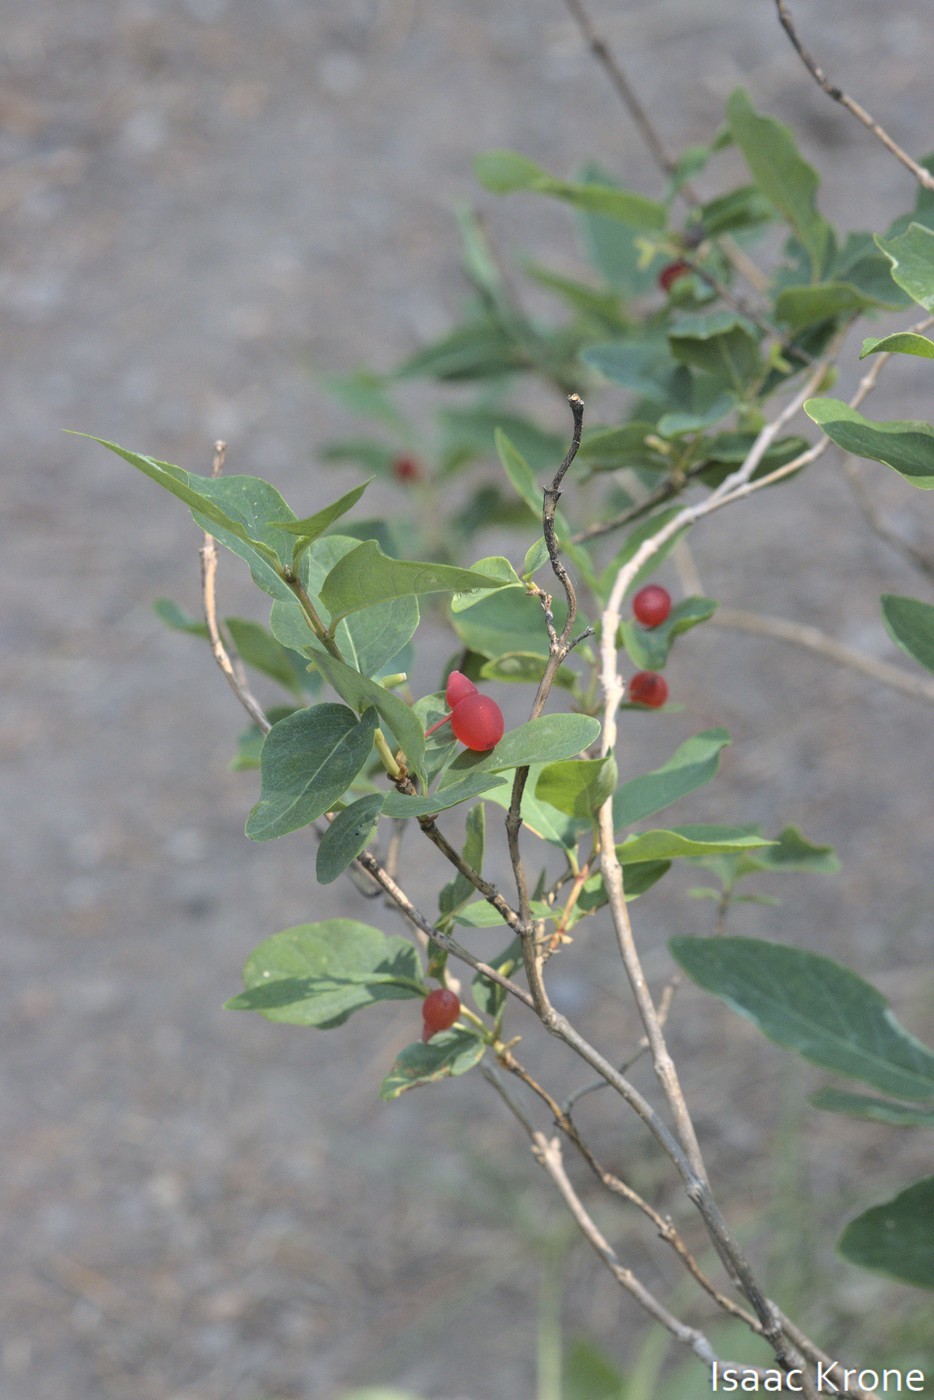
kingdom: Plantae
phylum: Tracheophyta
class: Magnoliopsida
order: Dipsacales
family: Caprifoliaceae
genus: Lonicera
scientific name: Lonicera utahensis
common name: Utah honeysuckle
